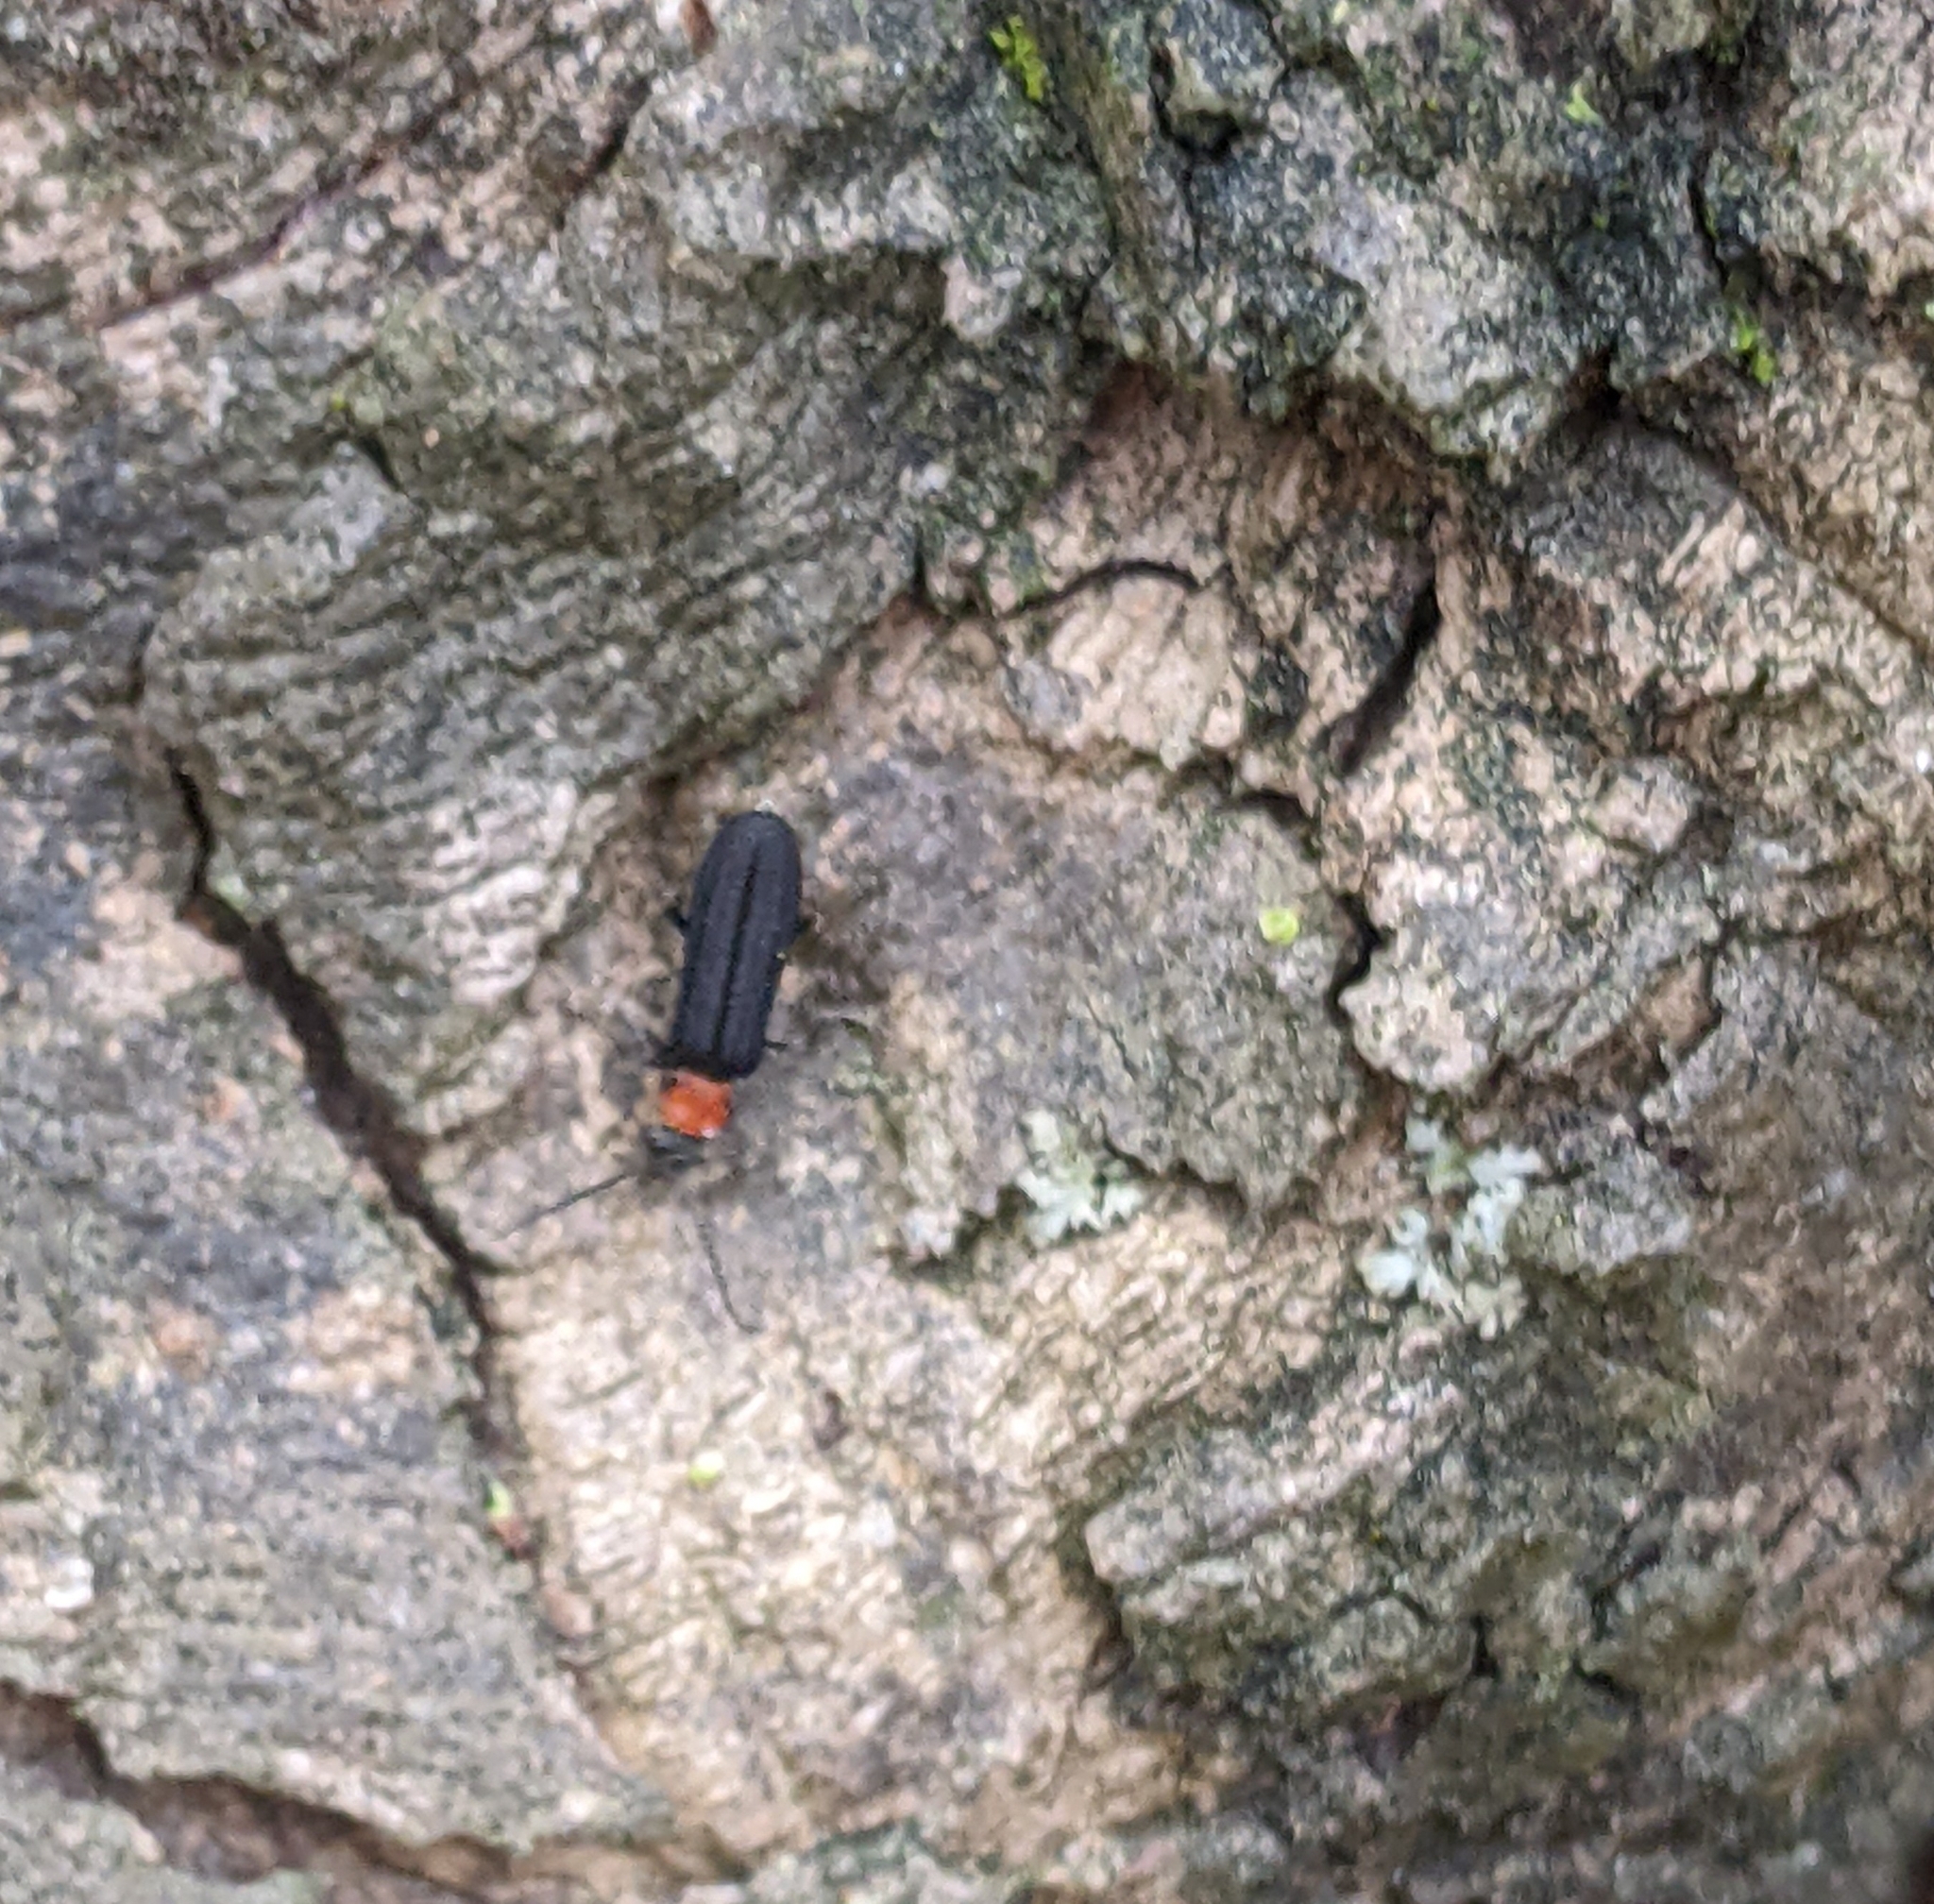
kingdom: Animalia
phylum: Arthropoda
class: Insecta
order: Coleoptera
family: Oedemeridae
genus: Ischnomera
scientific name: Ischnomera
